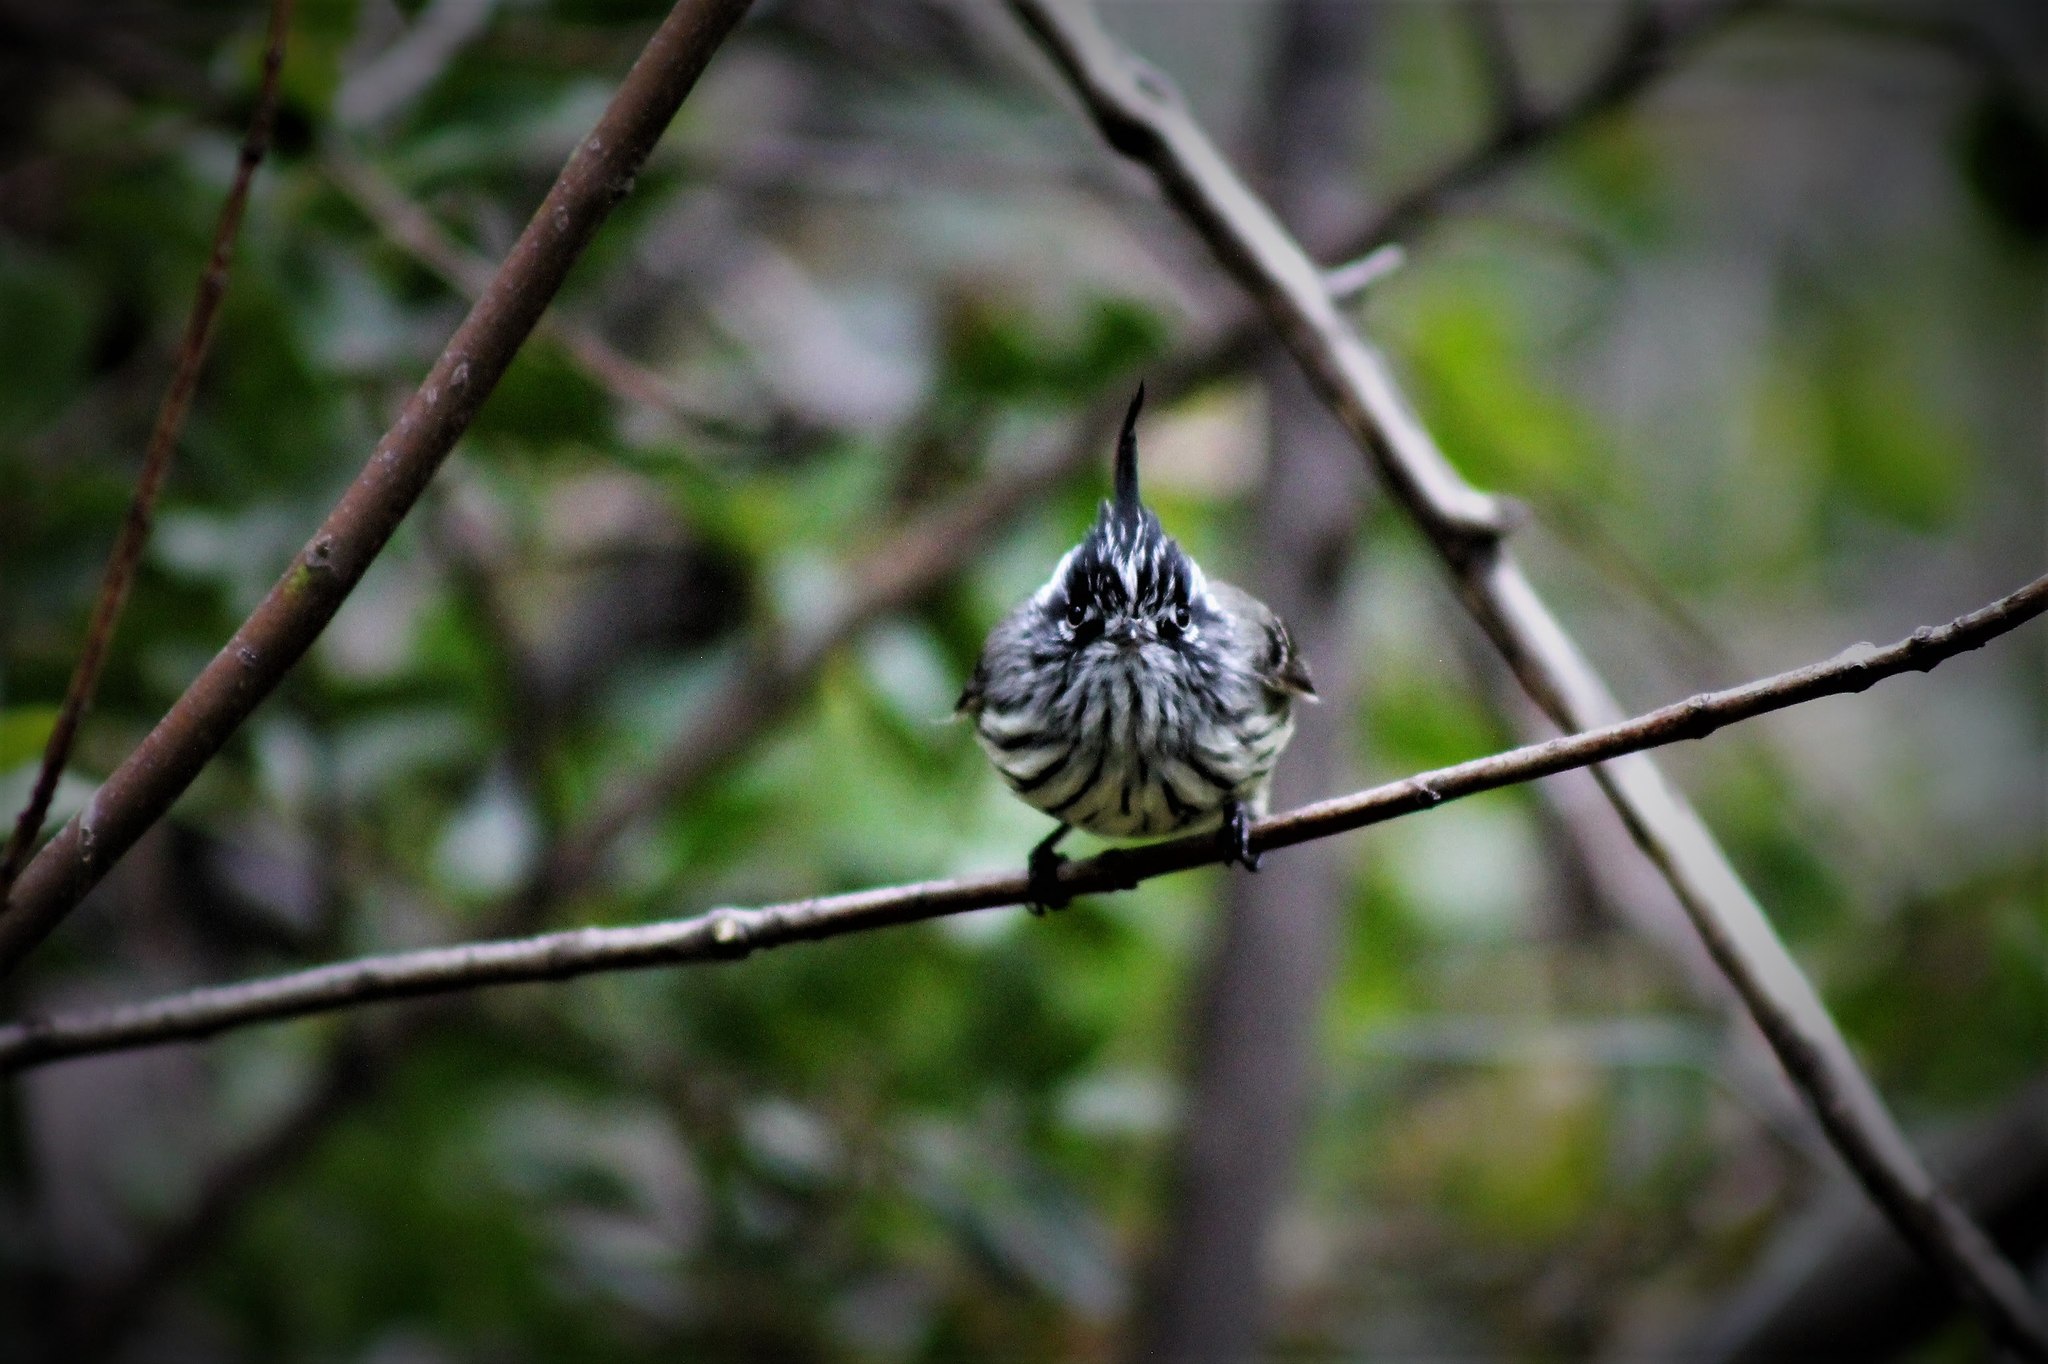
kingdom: Animalia
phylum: Chordata
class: Aves
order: Passeriformes
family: Tyrannidae
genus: Anairetes
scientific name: Anairetes parulus
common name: Tufted tit-tyrant
